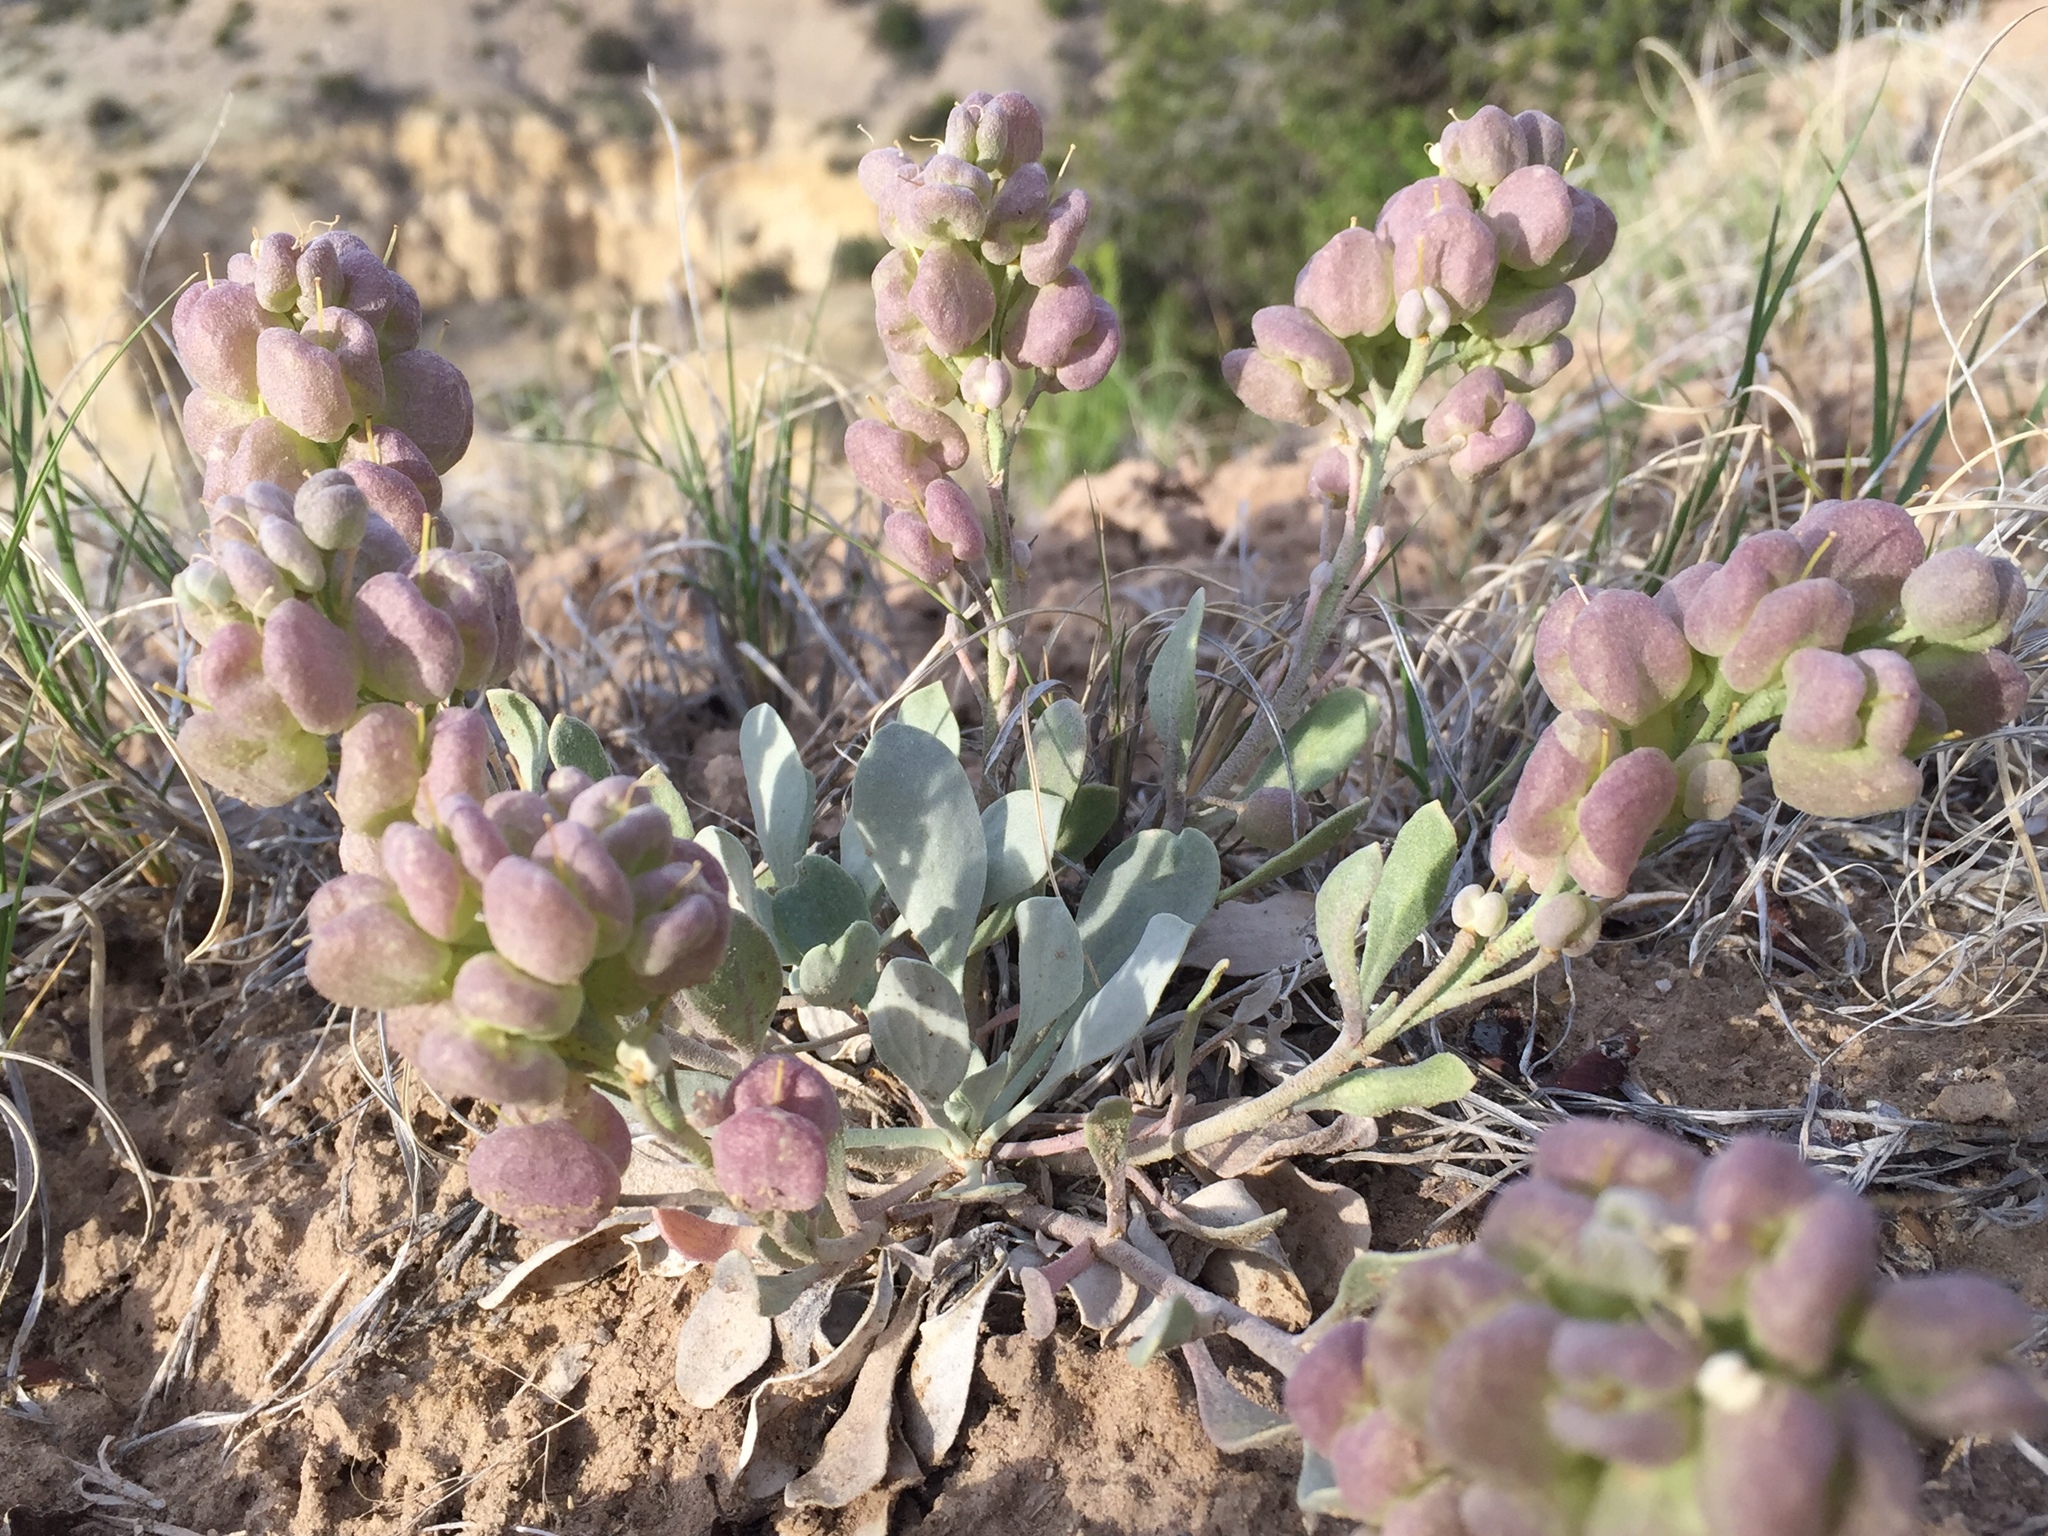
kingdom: Plantae
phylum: Tracheophyta
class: Magnoliopsida
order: Brassicales
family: Brassicaceae
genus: Physaria
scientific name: Physaria acutifolia
